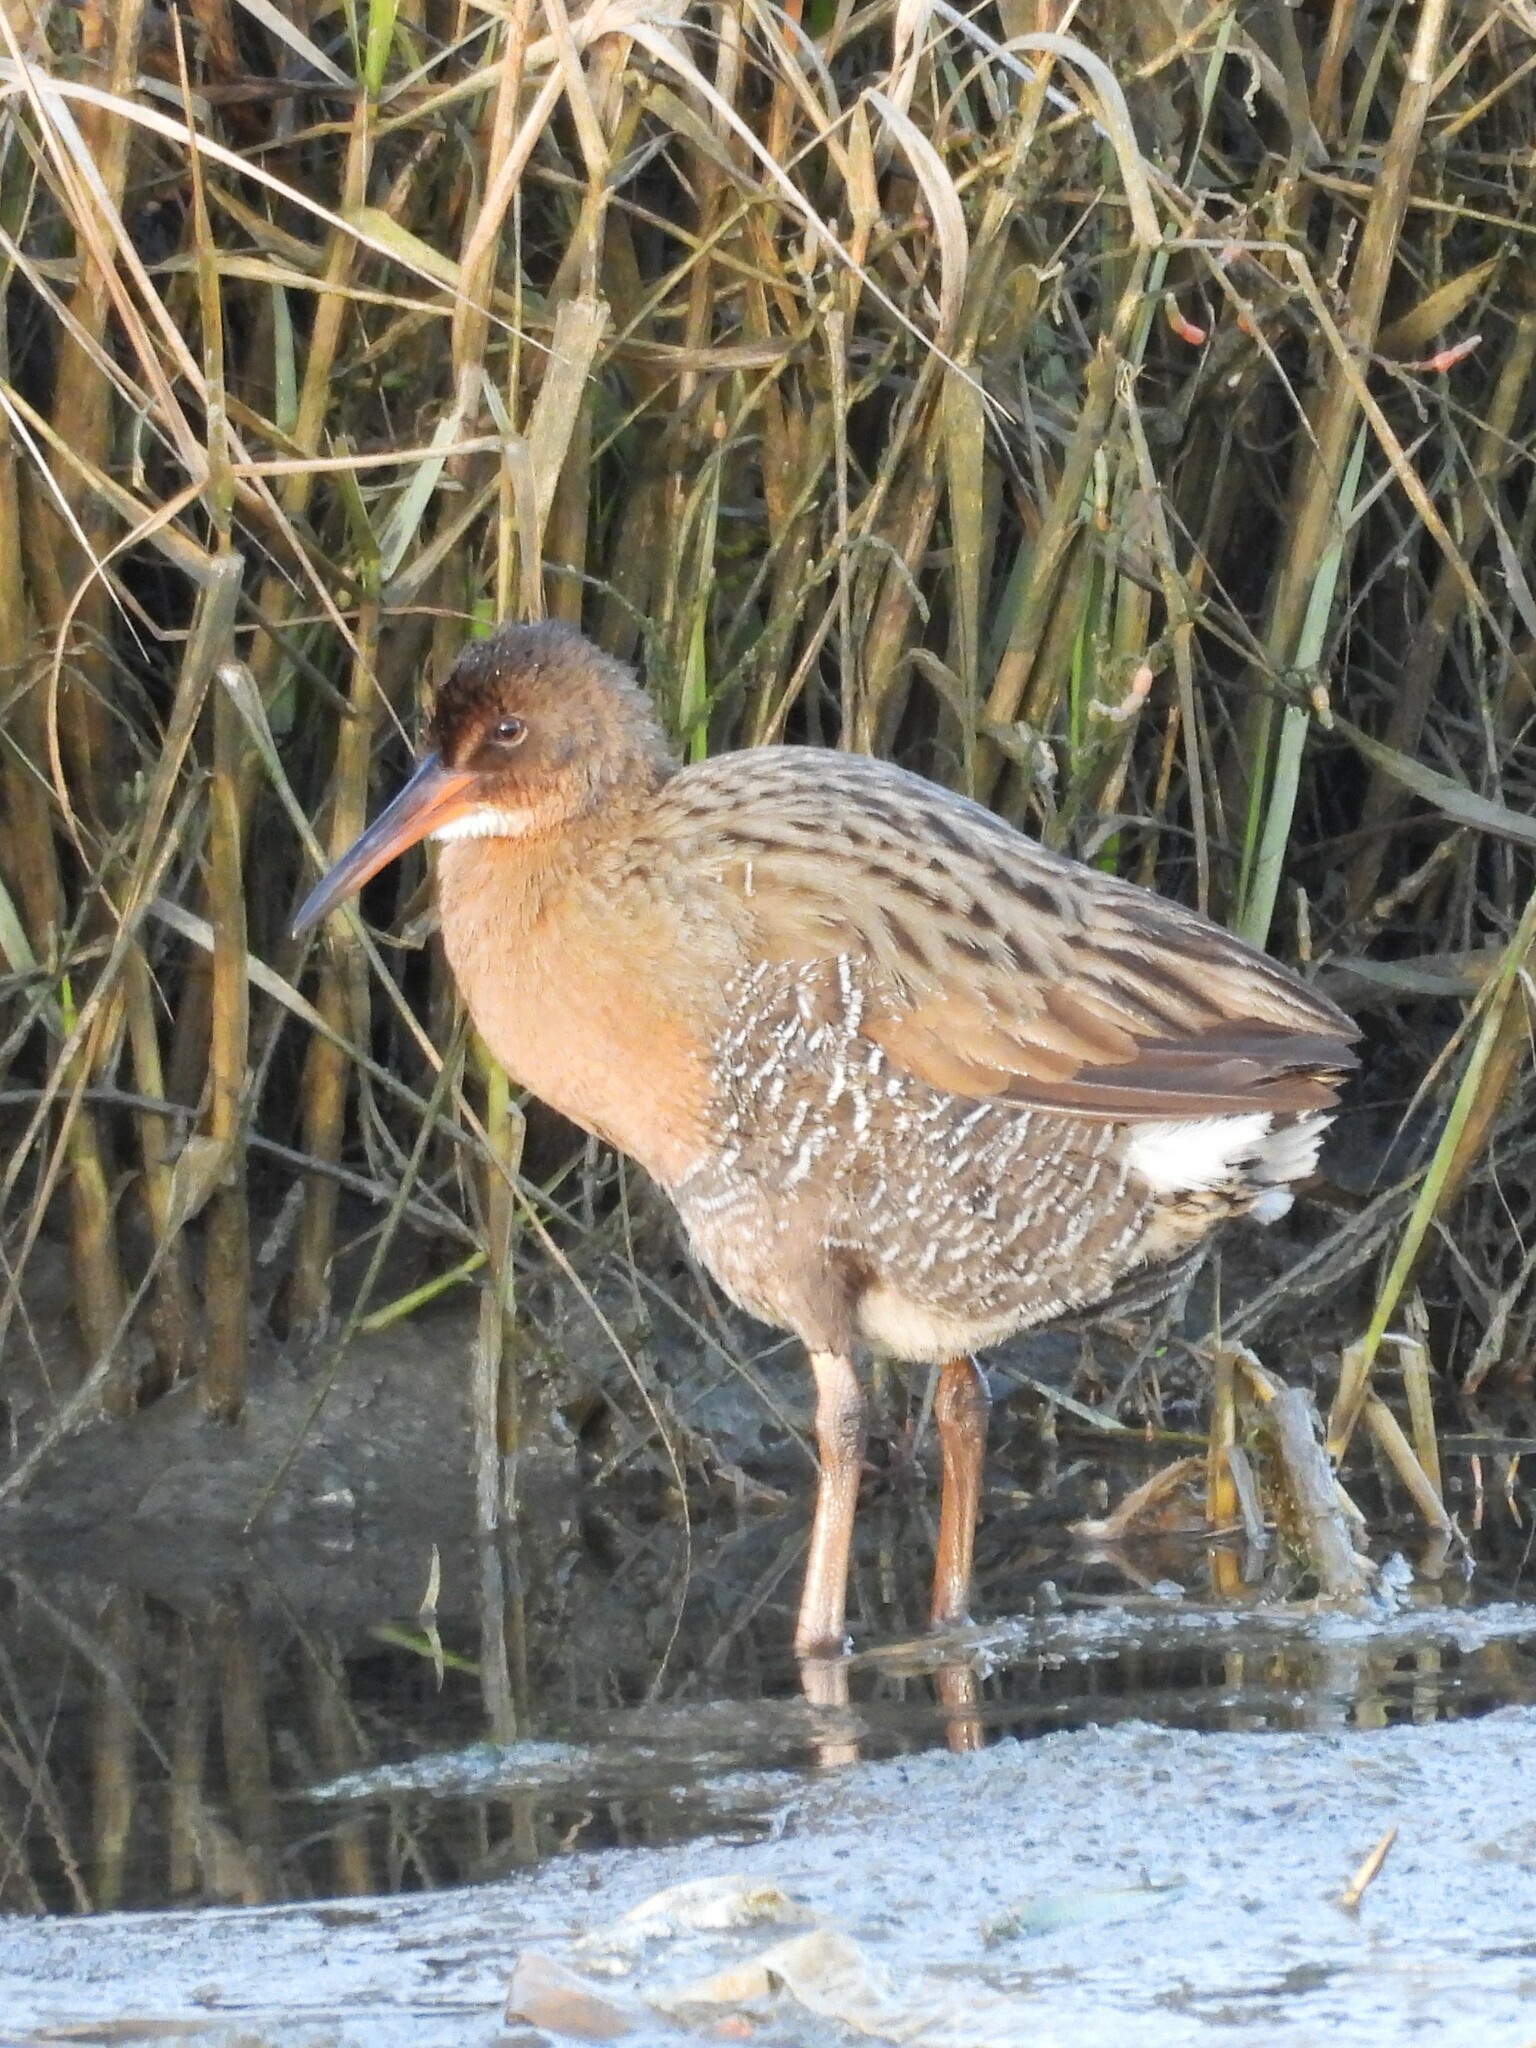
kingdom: Animalia
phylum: Chordata
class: Aves
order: Gruiformes
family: Rallidae
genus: Rallus
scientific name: Rallus obsoletus
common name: Ridgway's rail
